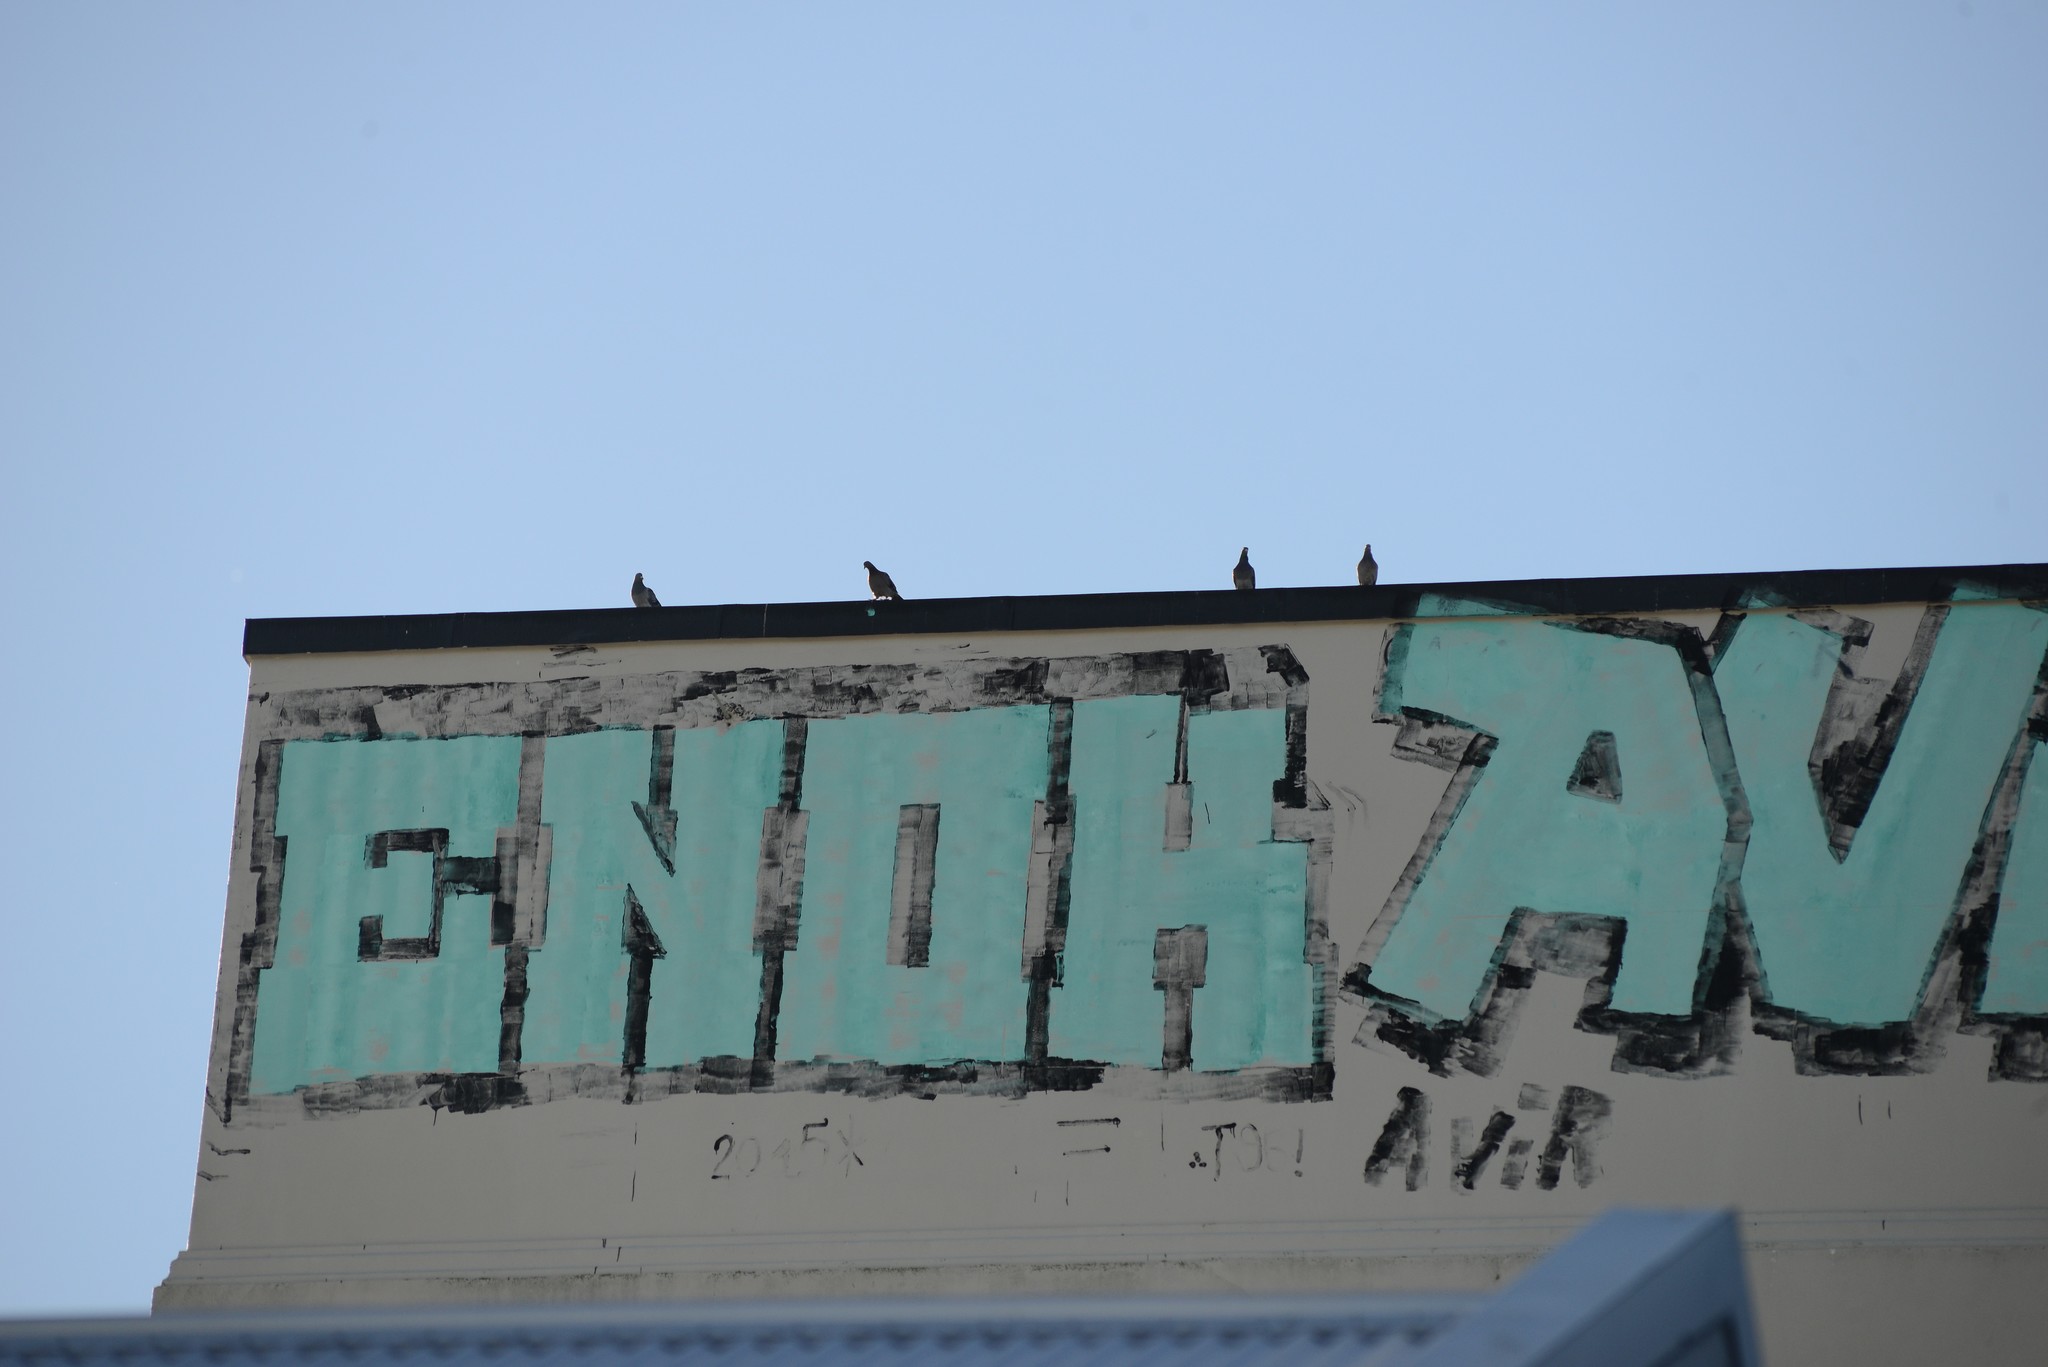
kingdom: Animalia
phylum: Chordata
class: Aves
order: Columbiformes
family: Columbidae
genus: Columba
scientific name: Columba livia
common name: Rock pigeon
